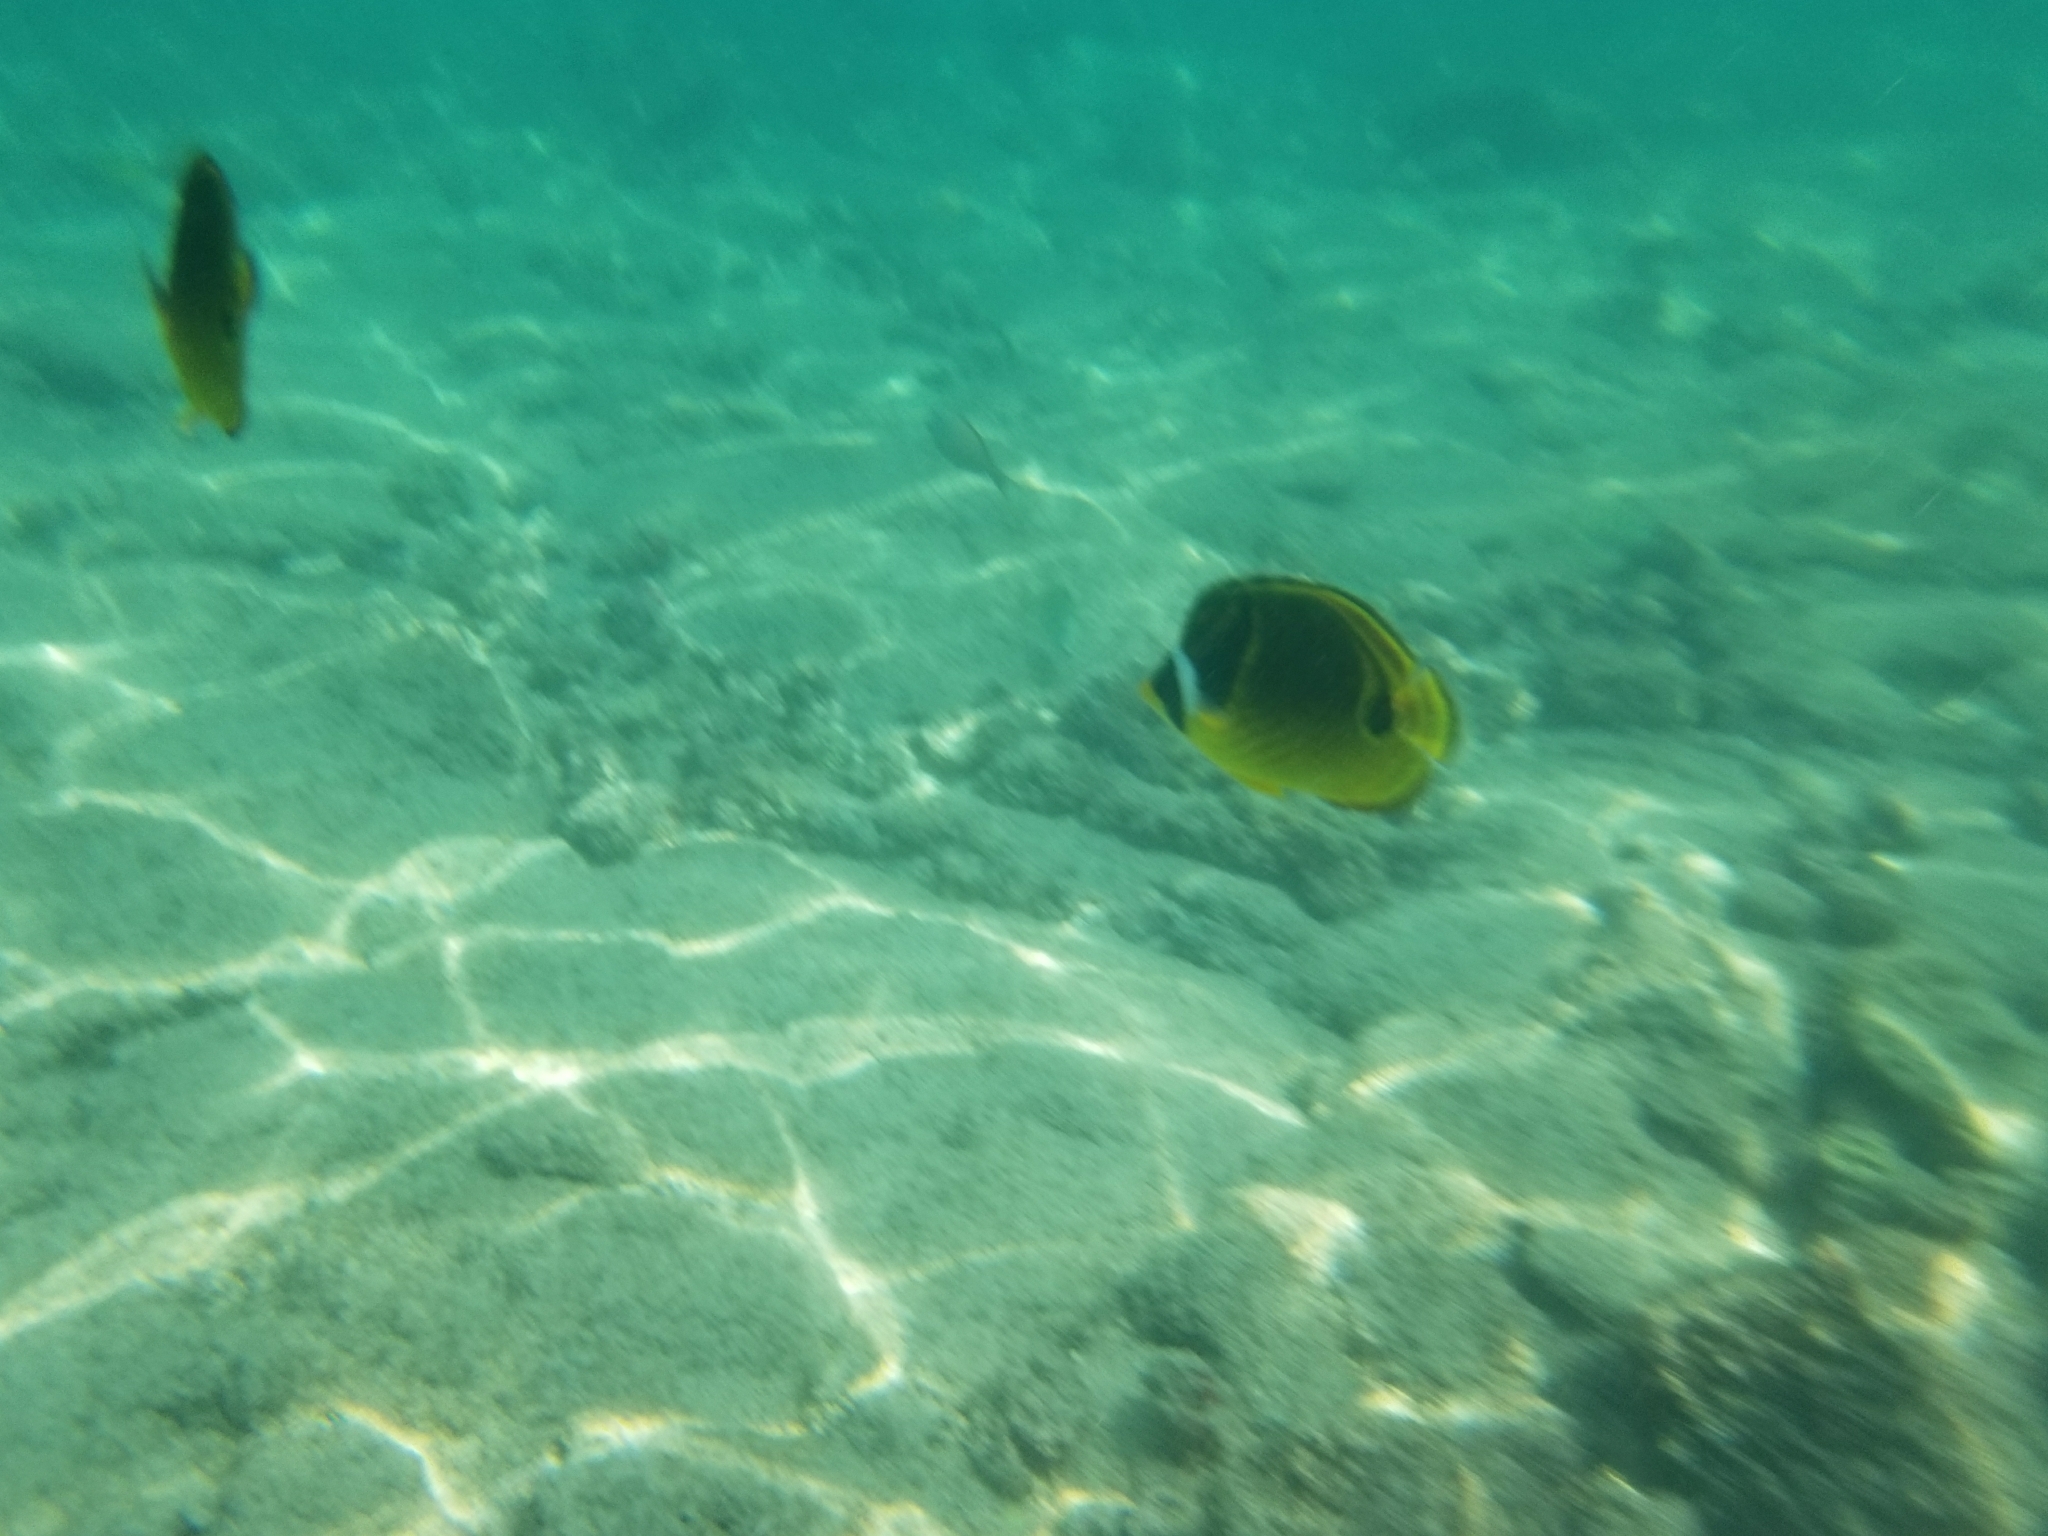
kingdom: Animalia
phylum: Chordata
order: Perciformes
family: Chaetodontidae
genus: Chaetodon
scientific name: Chaetodon lunula
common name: Raccoon butterflyfish
